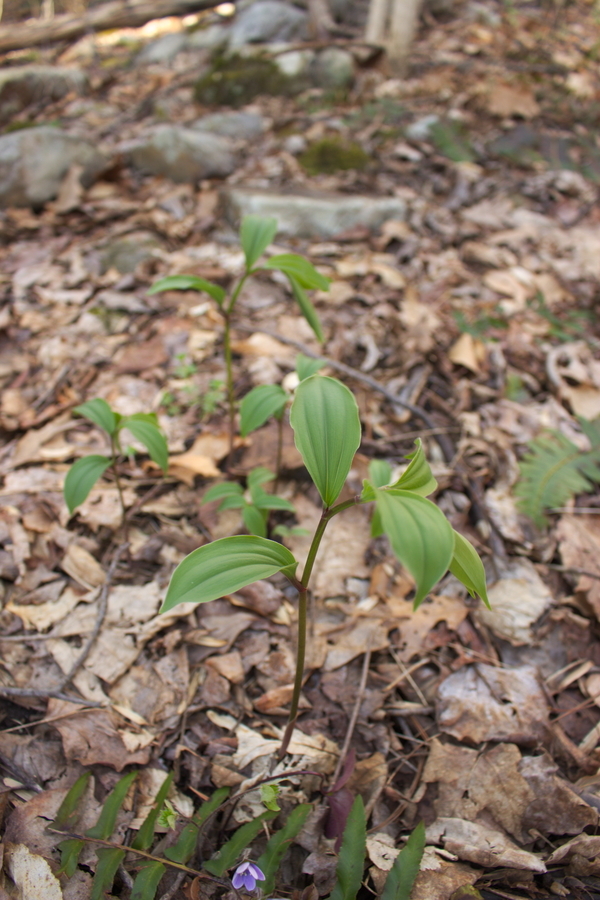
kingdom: Plantae
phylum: Tracheophyta
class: Liliopsida
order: Asparagales
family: Asparagaceae
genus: Maianthemum
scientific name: Maianthemum racemosum
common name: False spikenard
